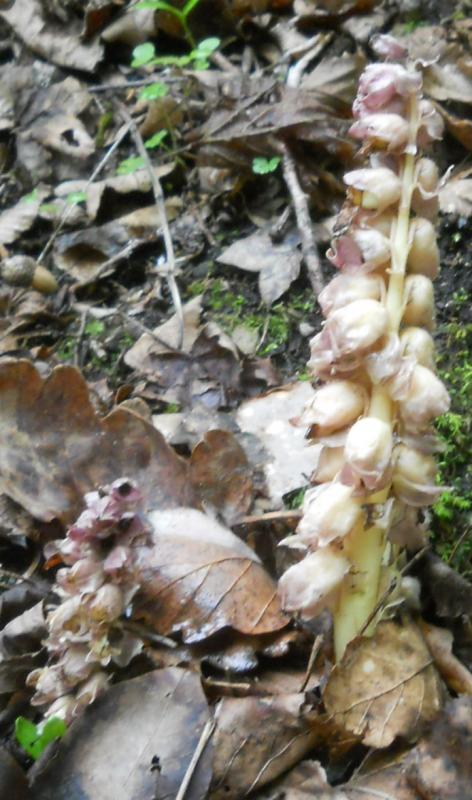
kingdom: Plantae
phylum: Tracheophyta
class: Magnoliopsida
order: Lamiales
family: Orobanchaceae
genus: Lathraea
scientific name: Lathraea squamaria
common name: Toothwort
